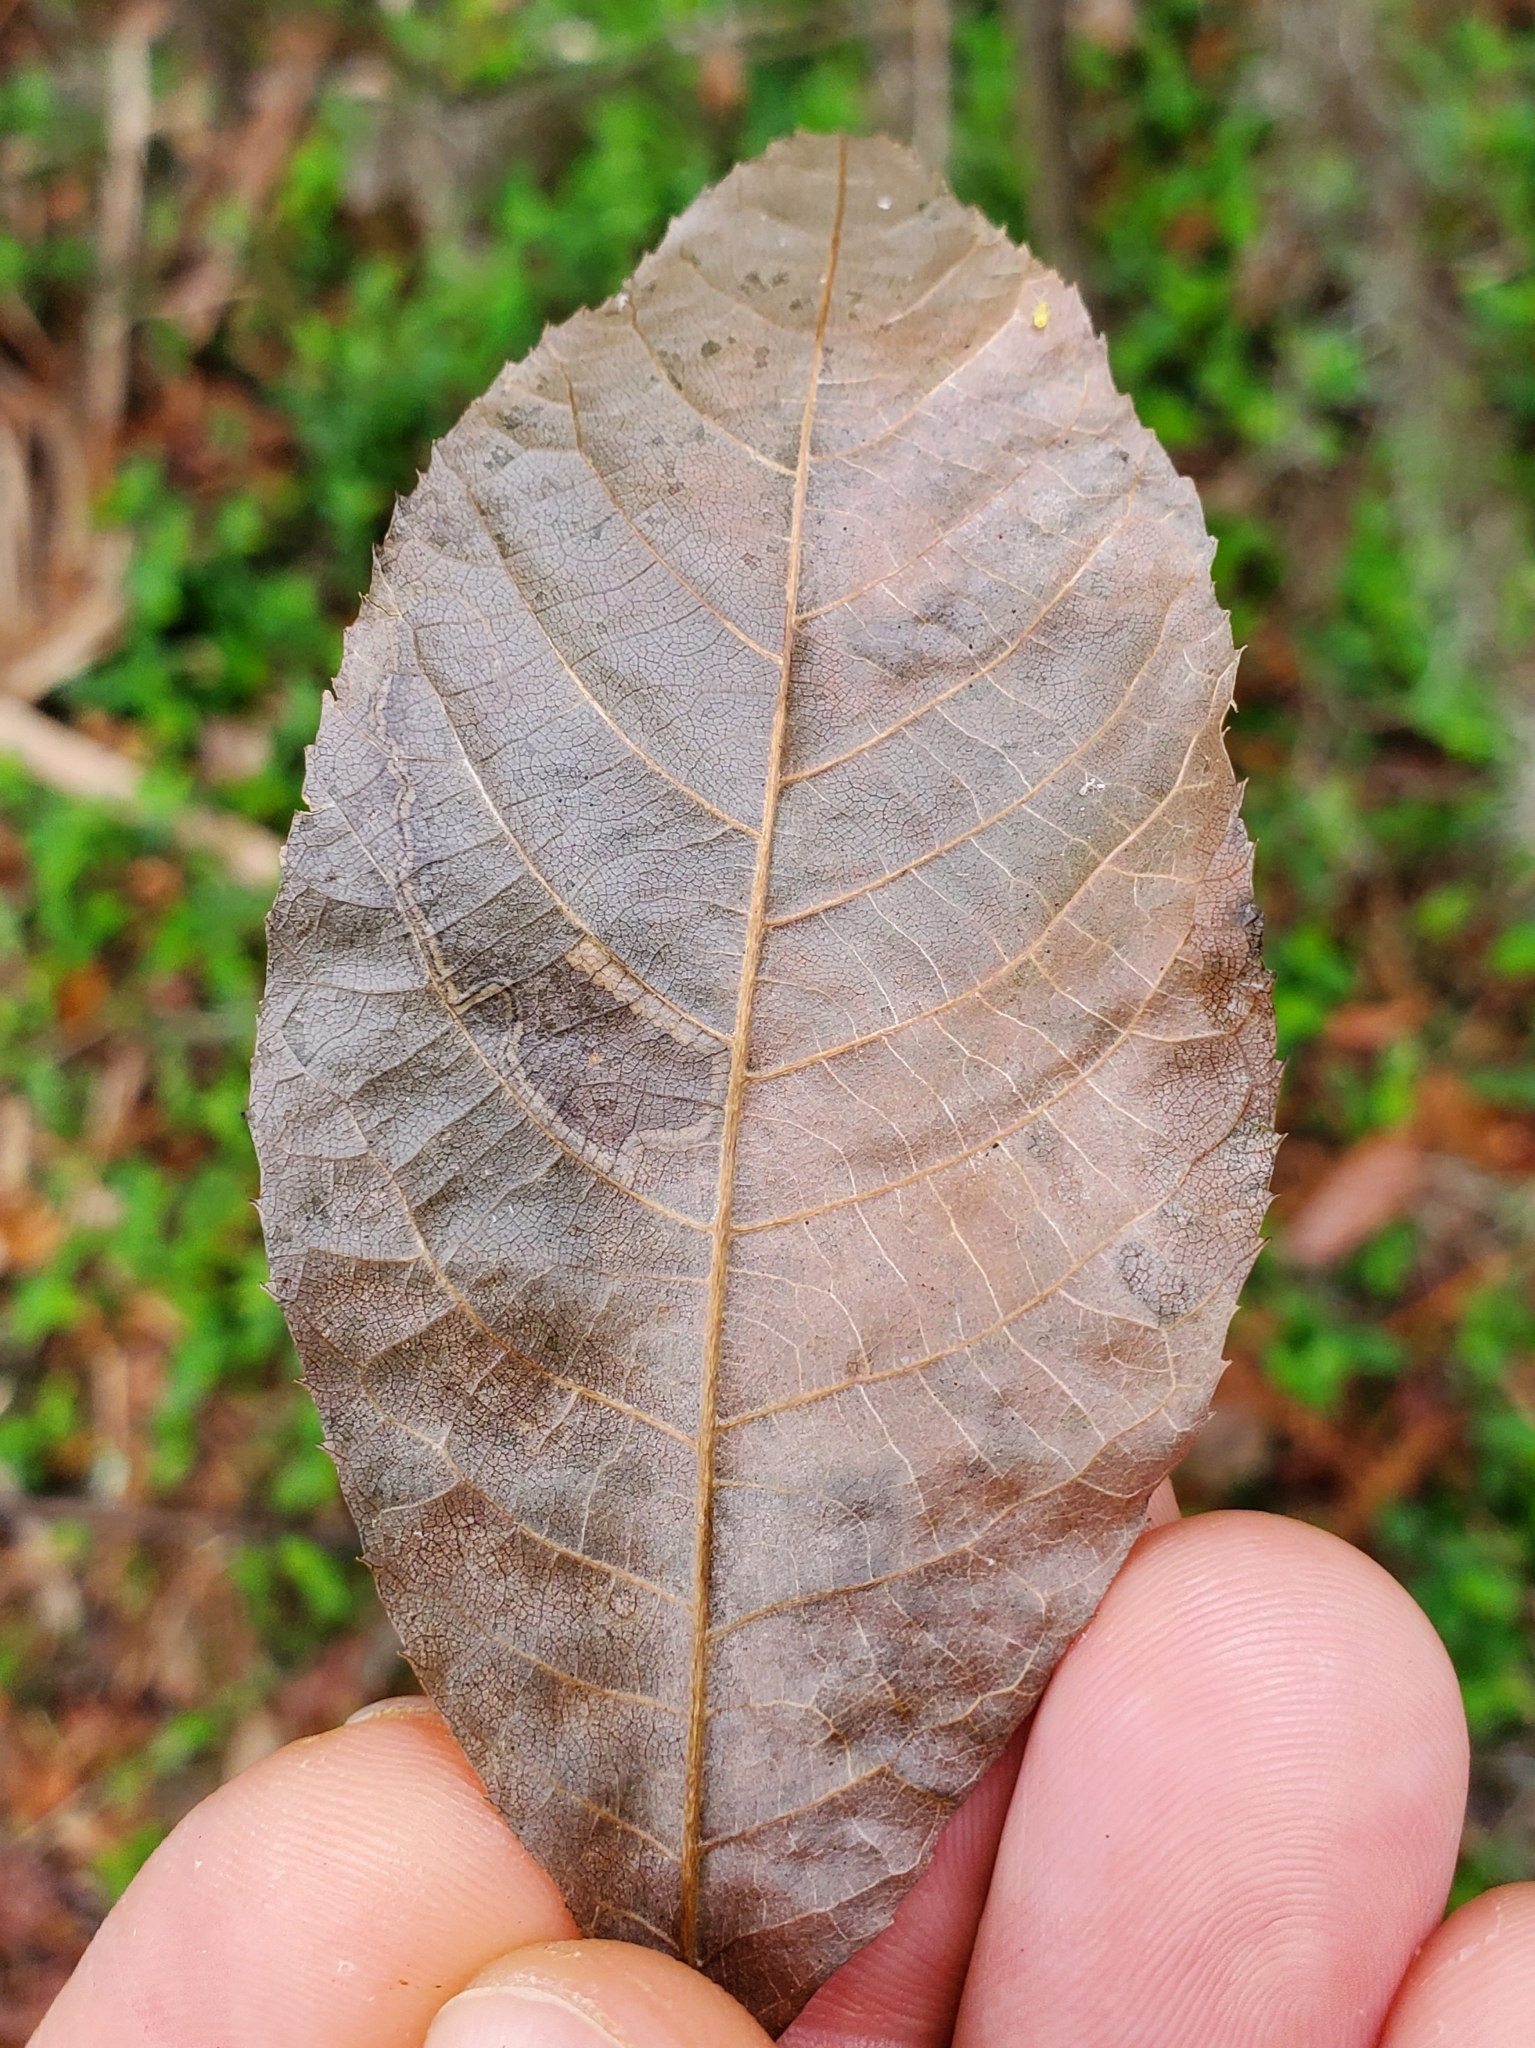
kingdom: Animalia
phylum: Arthropoda
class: Insecta
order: Lepidoptera
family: Nepticulidae
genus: Stigmella
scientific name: Stigmella caryaefoliella
